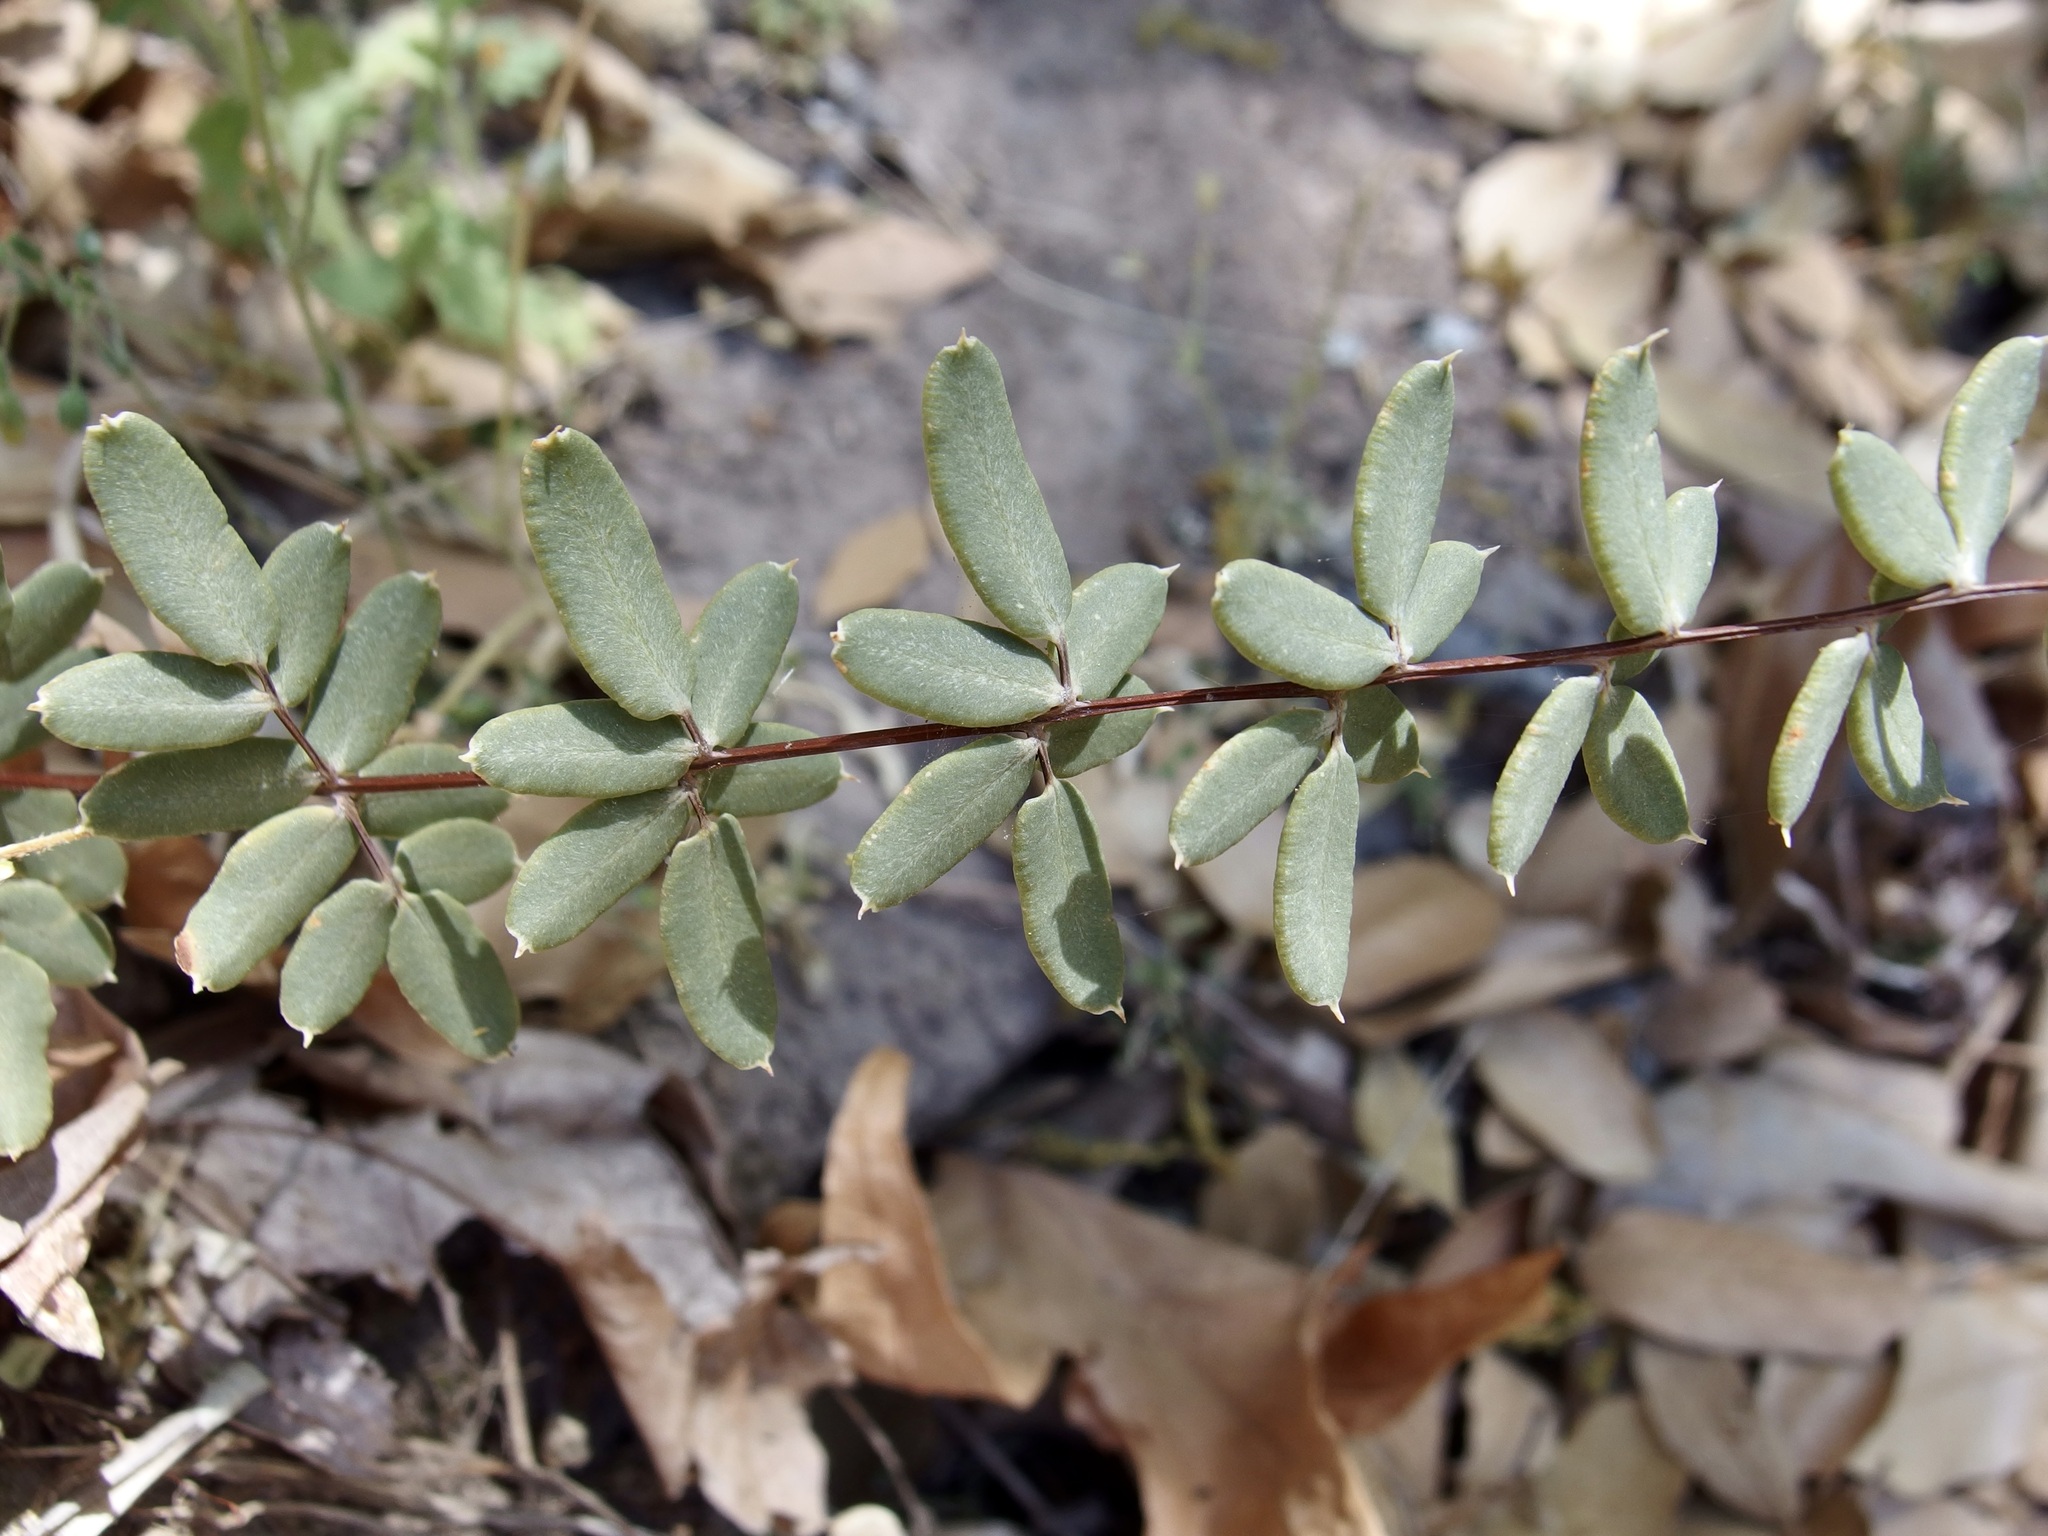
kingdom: Plantae
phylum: Tracheophyta
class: Polypodiopsida
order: Polypodiales
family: Pteridaceae
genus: Pellaea
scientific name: Pellaea wrightiana
